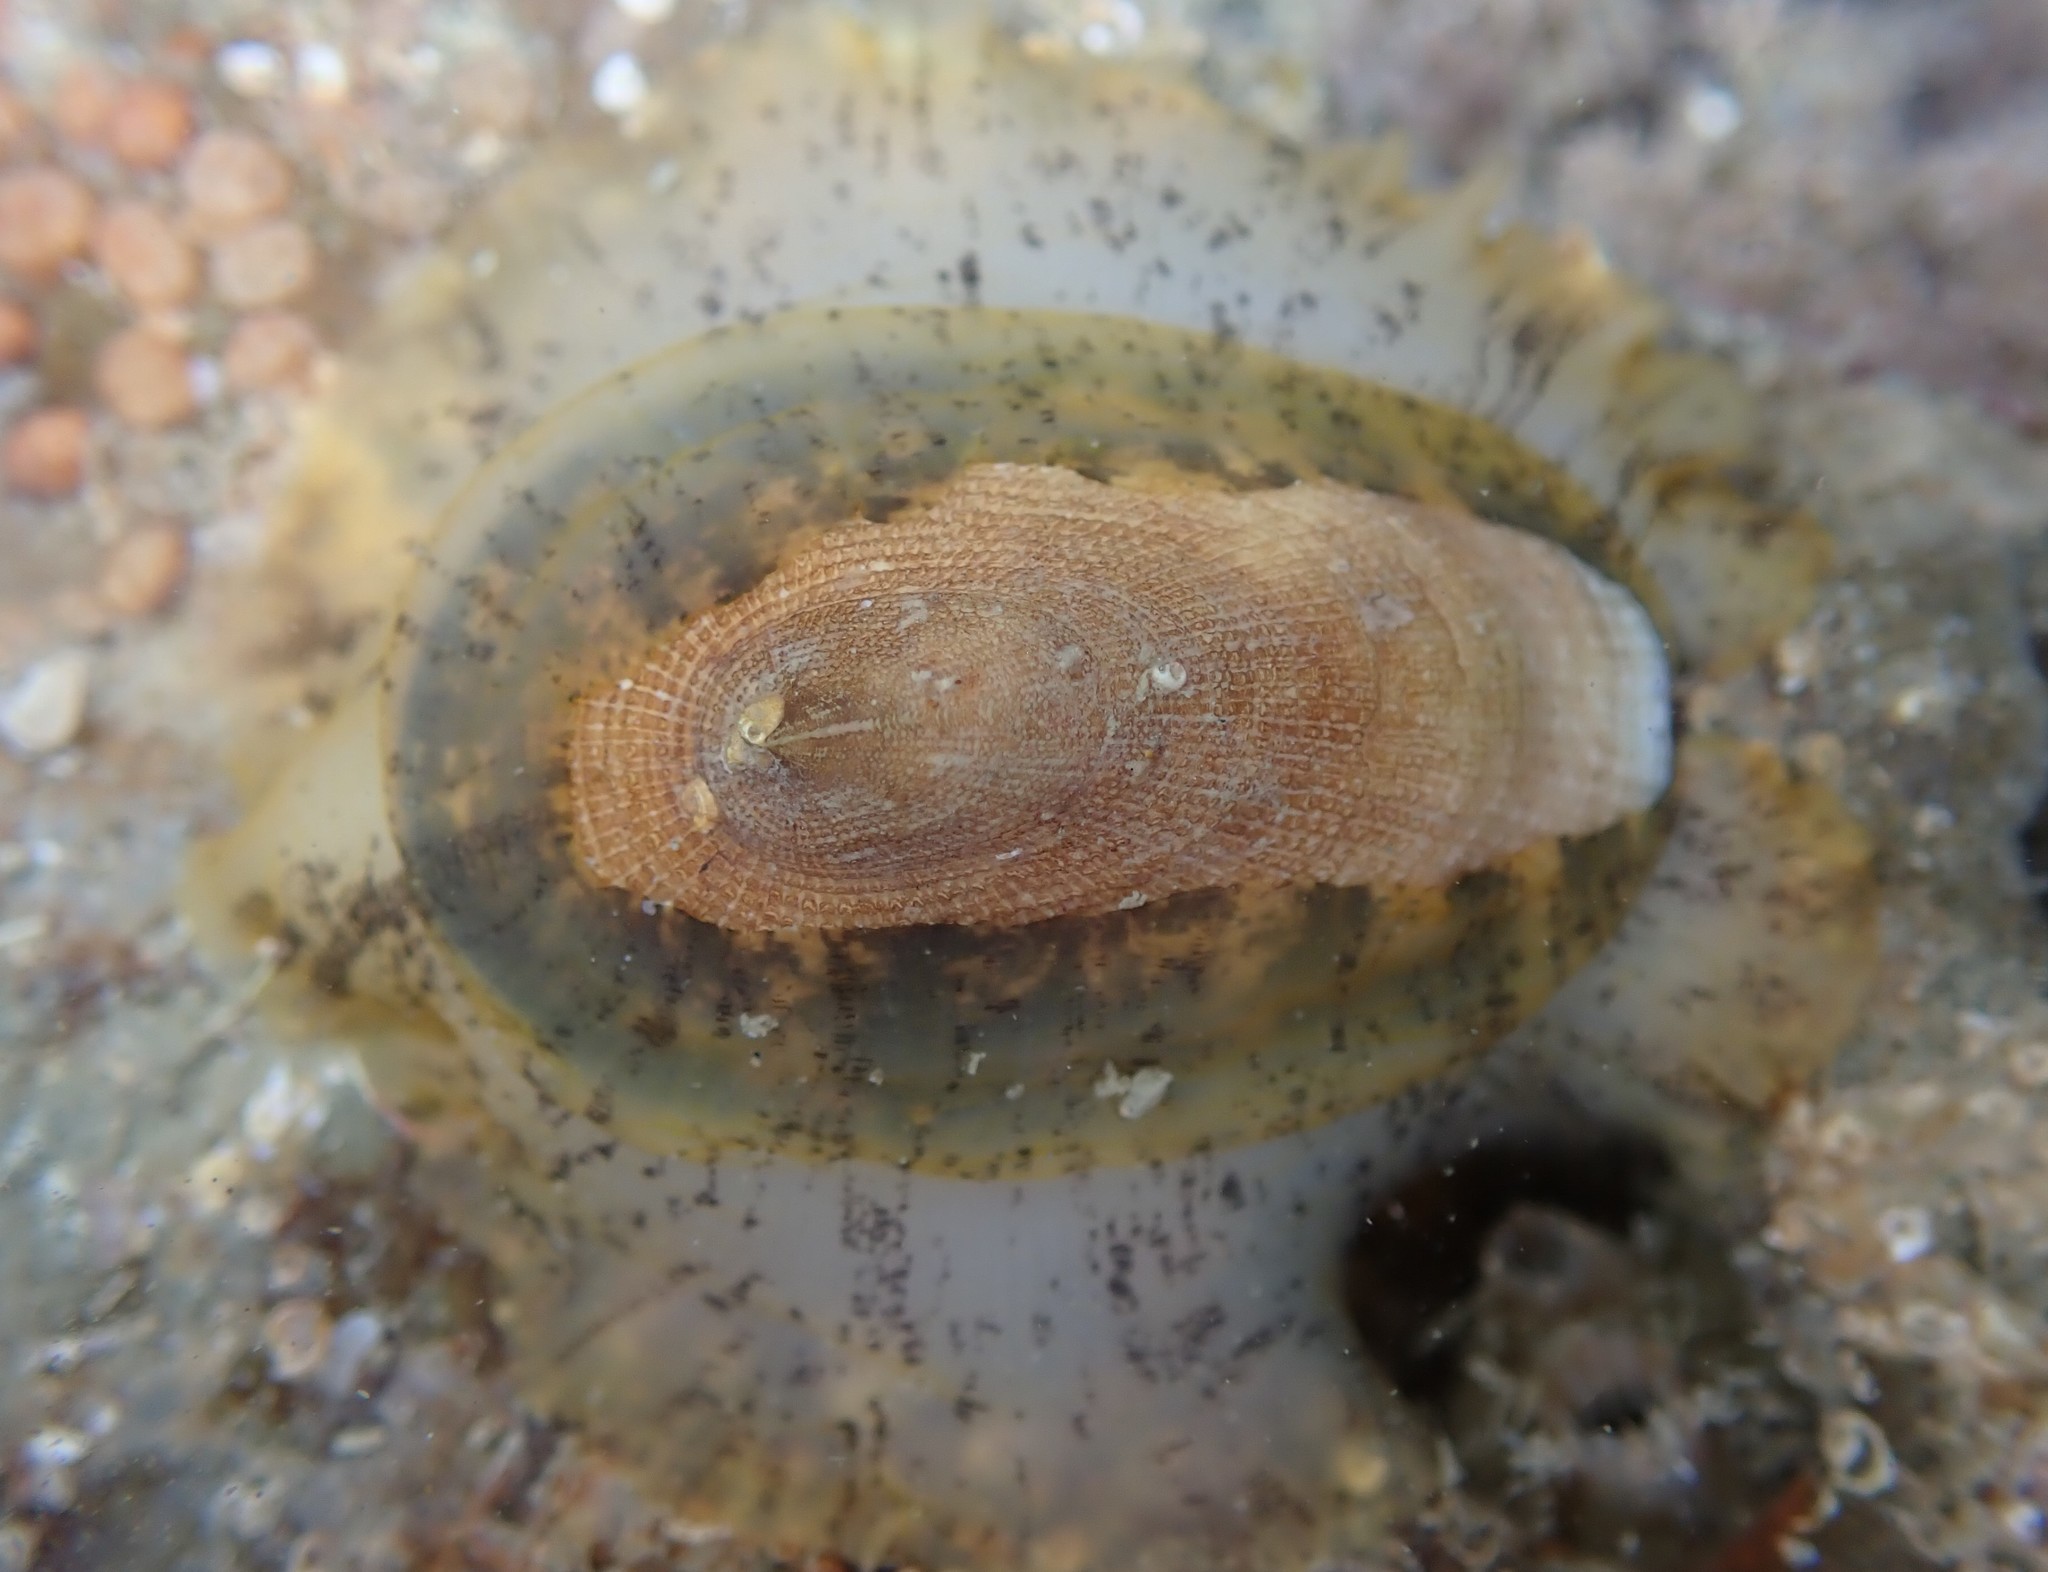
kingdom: Animalia
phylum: Mollusca
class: Gastropoda
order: Lepetellida
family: Fissurellidae
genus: Tugali
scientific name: Tugali elegans
